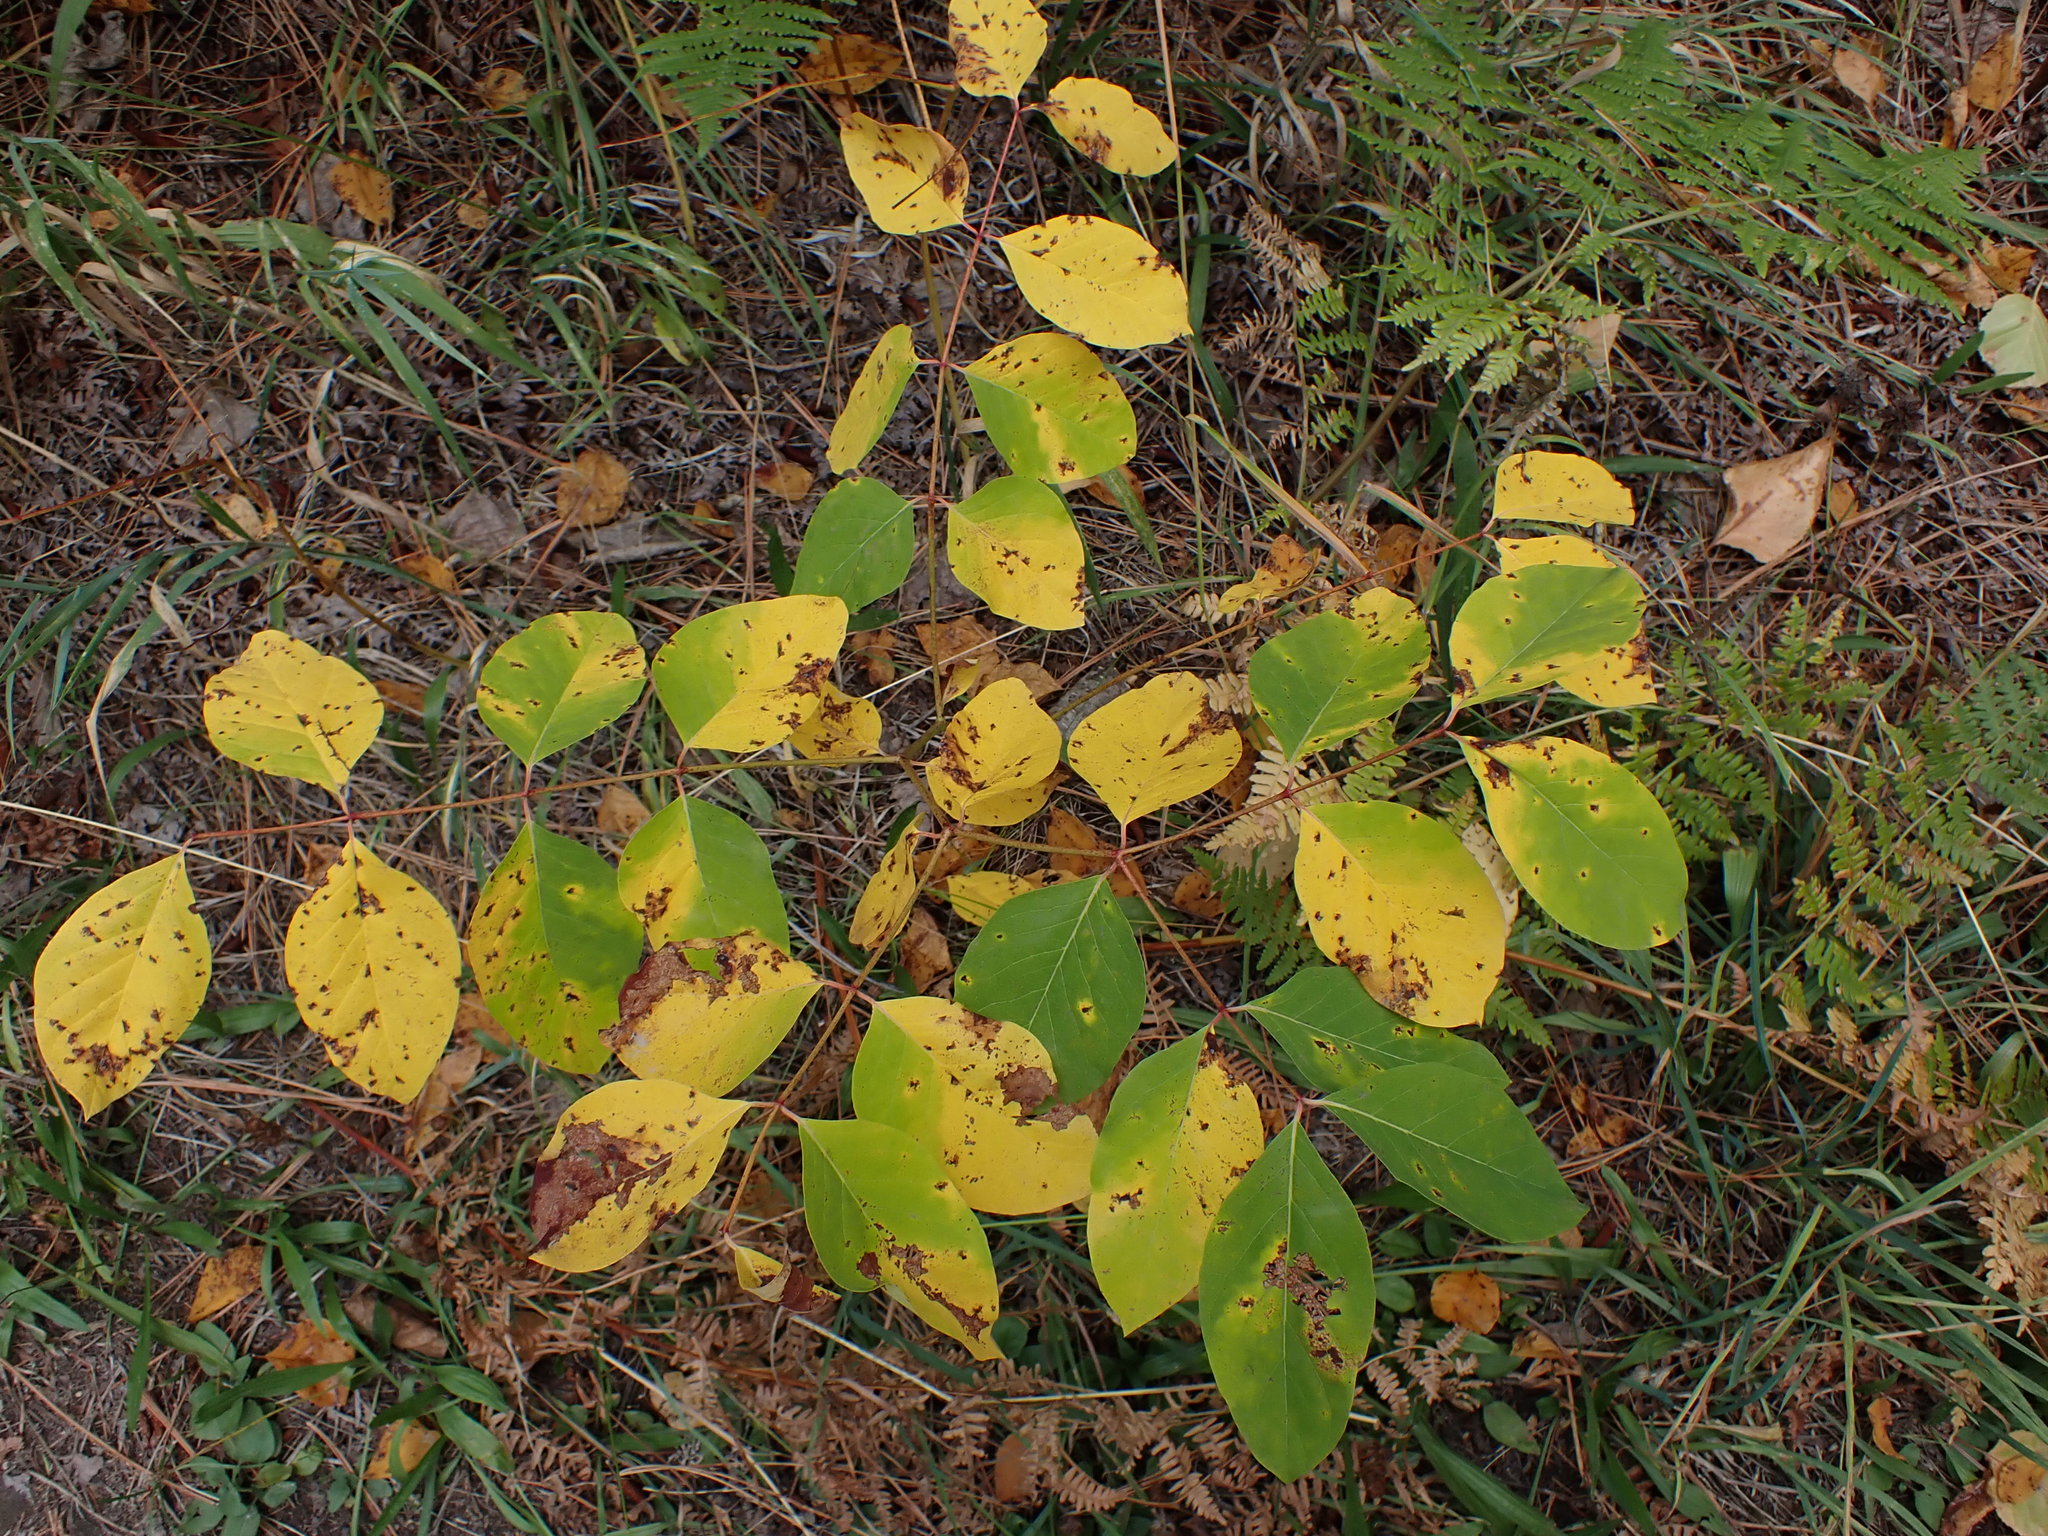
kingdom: Plantae
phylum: Tracheophyta
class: Magnoliopsida
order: Gentianales
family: Apocynaceae
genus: Apocynum
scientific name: Apocynum androsaemifolium
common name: Spreading dogbane
